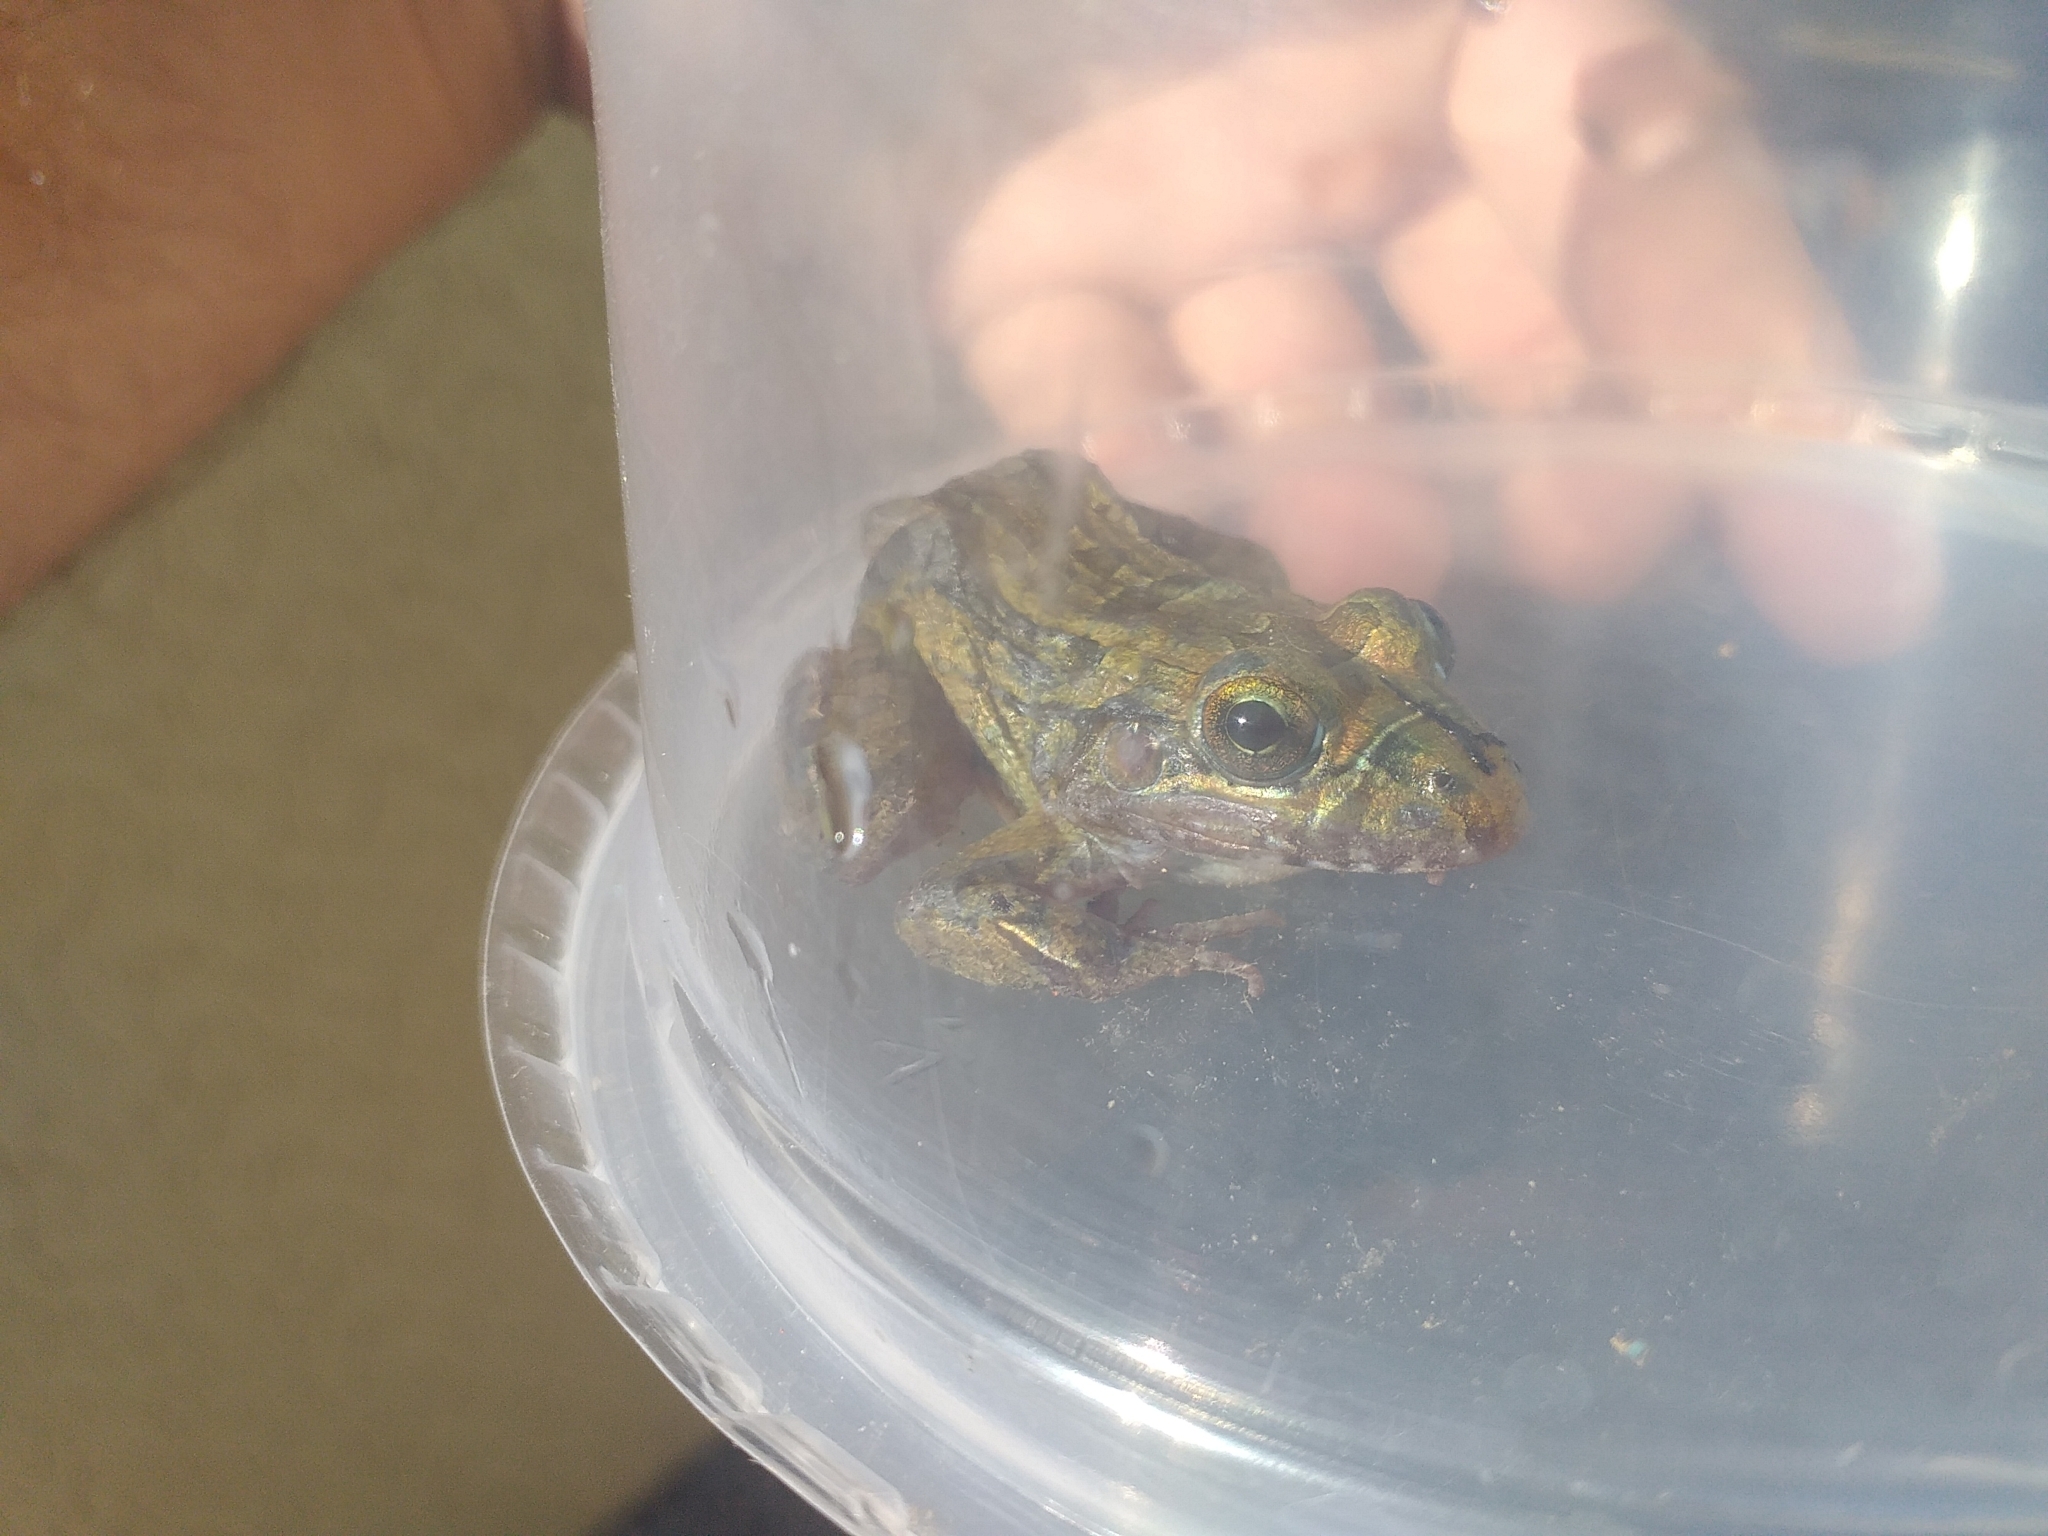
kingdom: Animalia
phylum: Chordata
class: Amphibia
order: Anura
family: Leptodactylidae
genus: Leptodactylus
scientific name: Leptodactylus macrosternum
